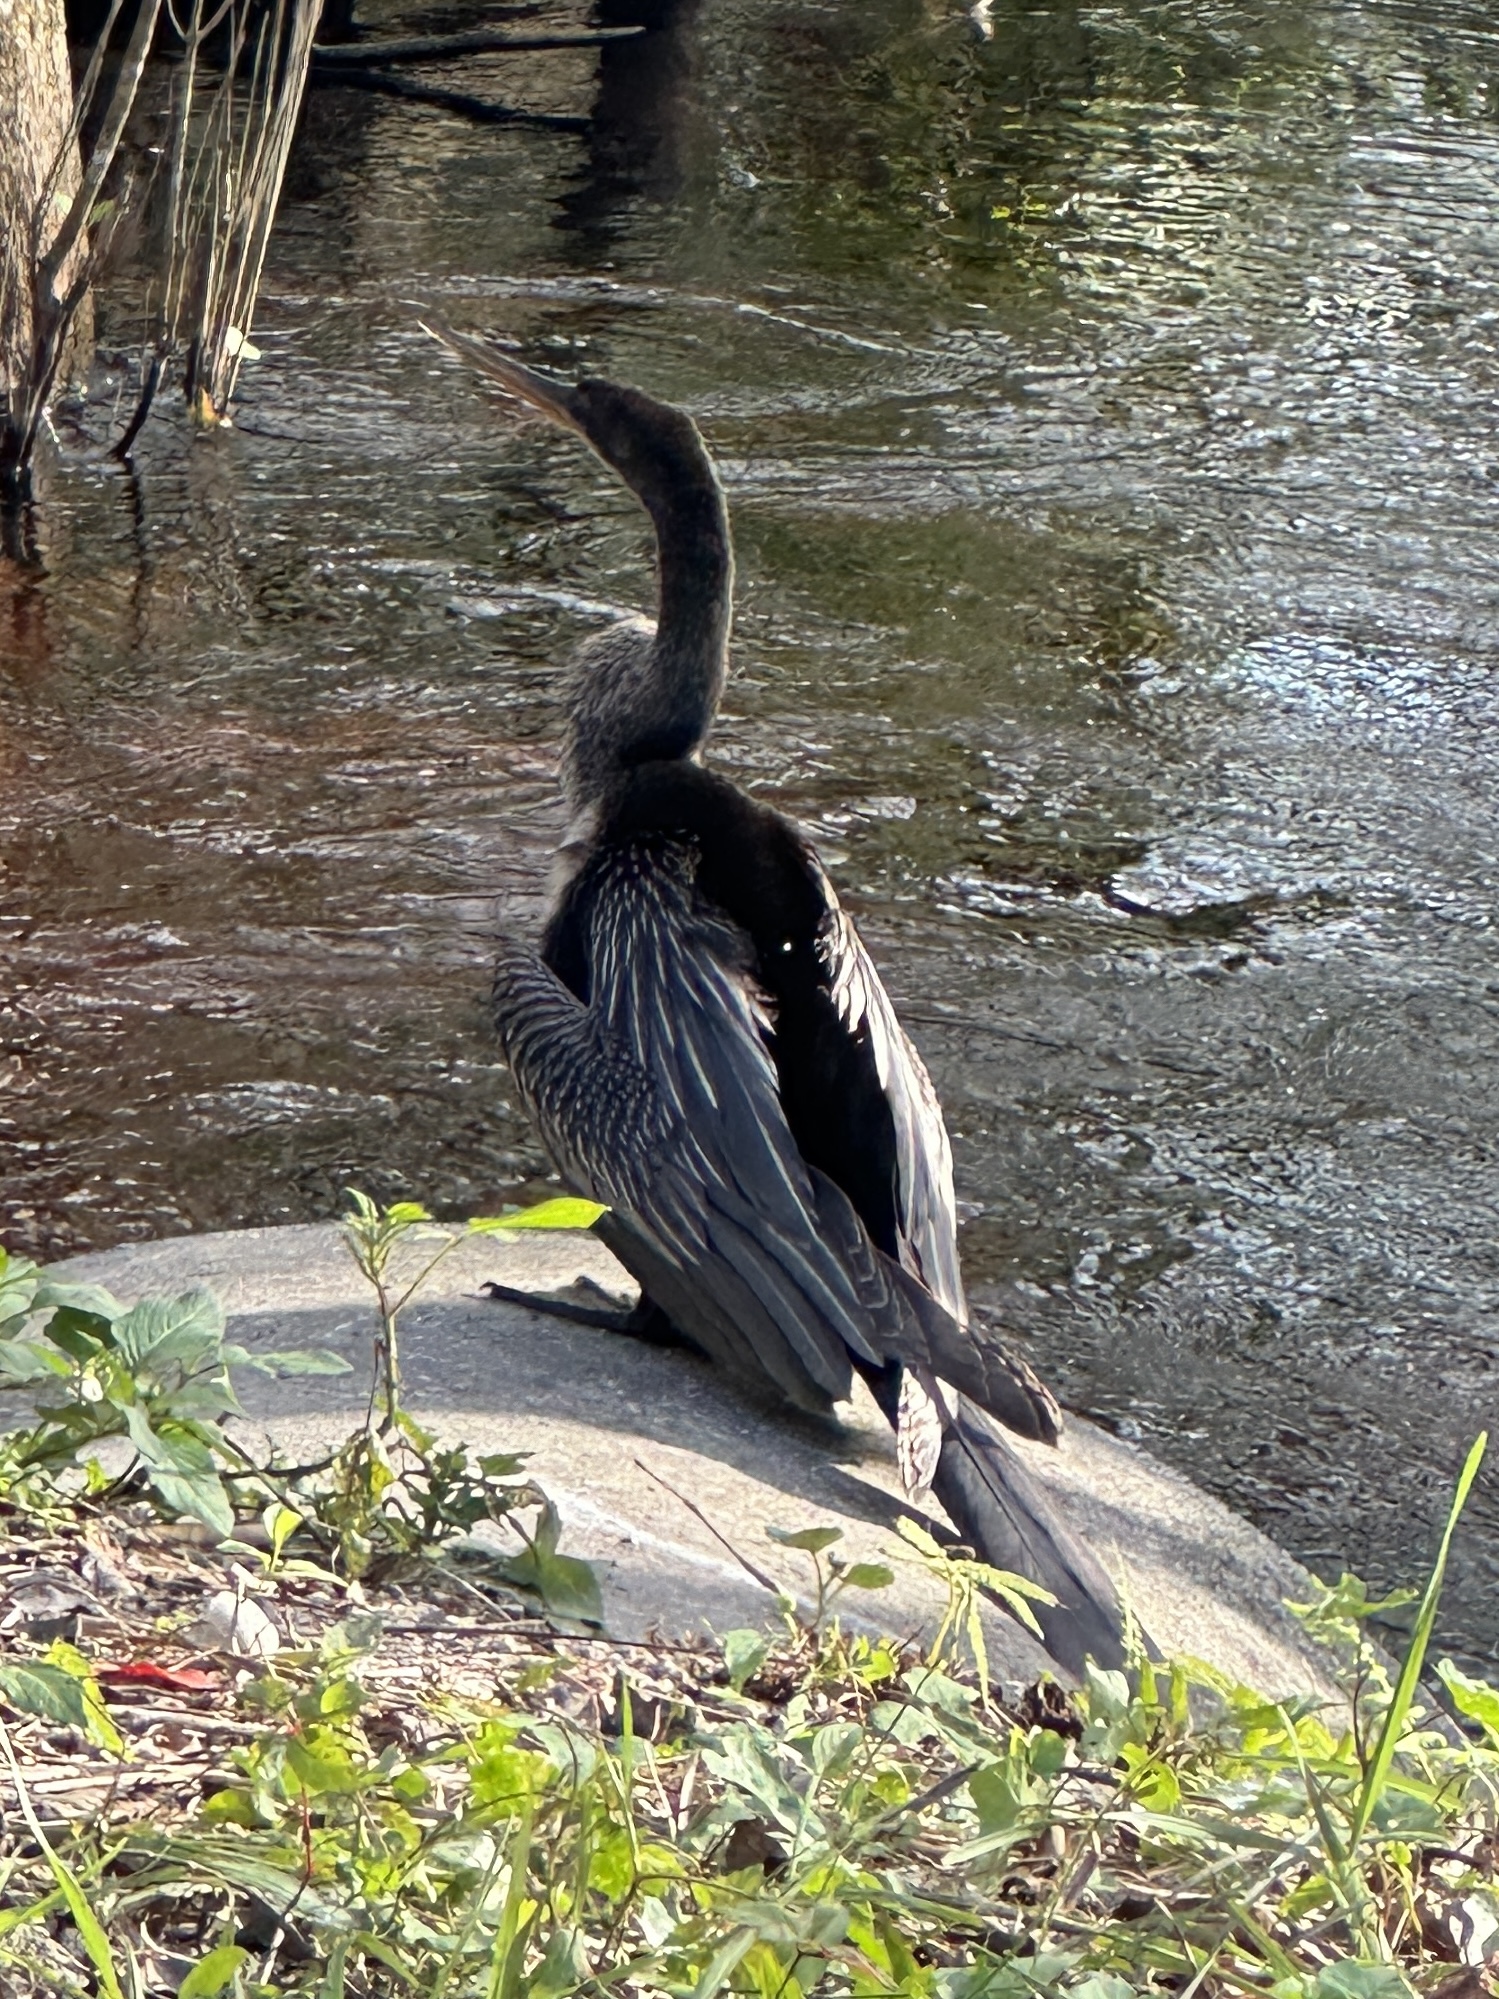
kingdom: Animalia
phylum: Chordata
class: Aves
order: Suliformes
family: Anhingidae
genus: Anhinga
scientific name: Anhinga anhinga
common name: Anhinga
